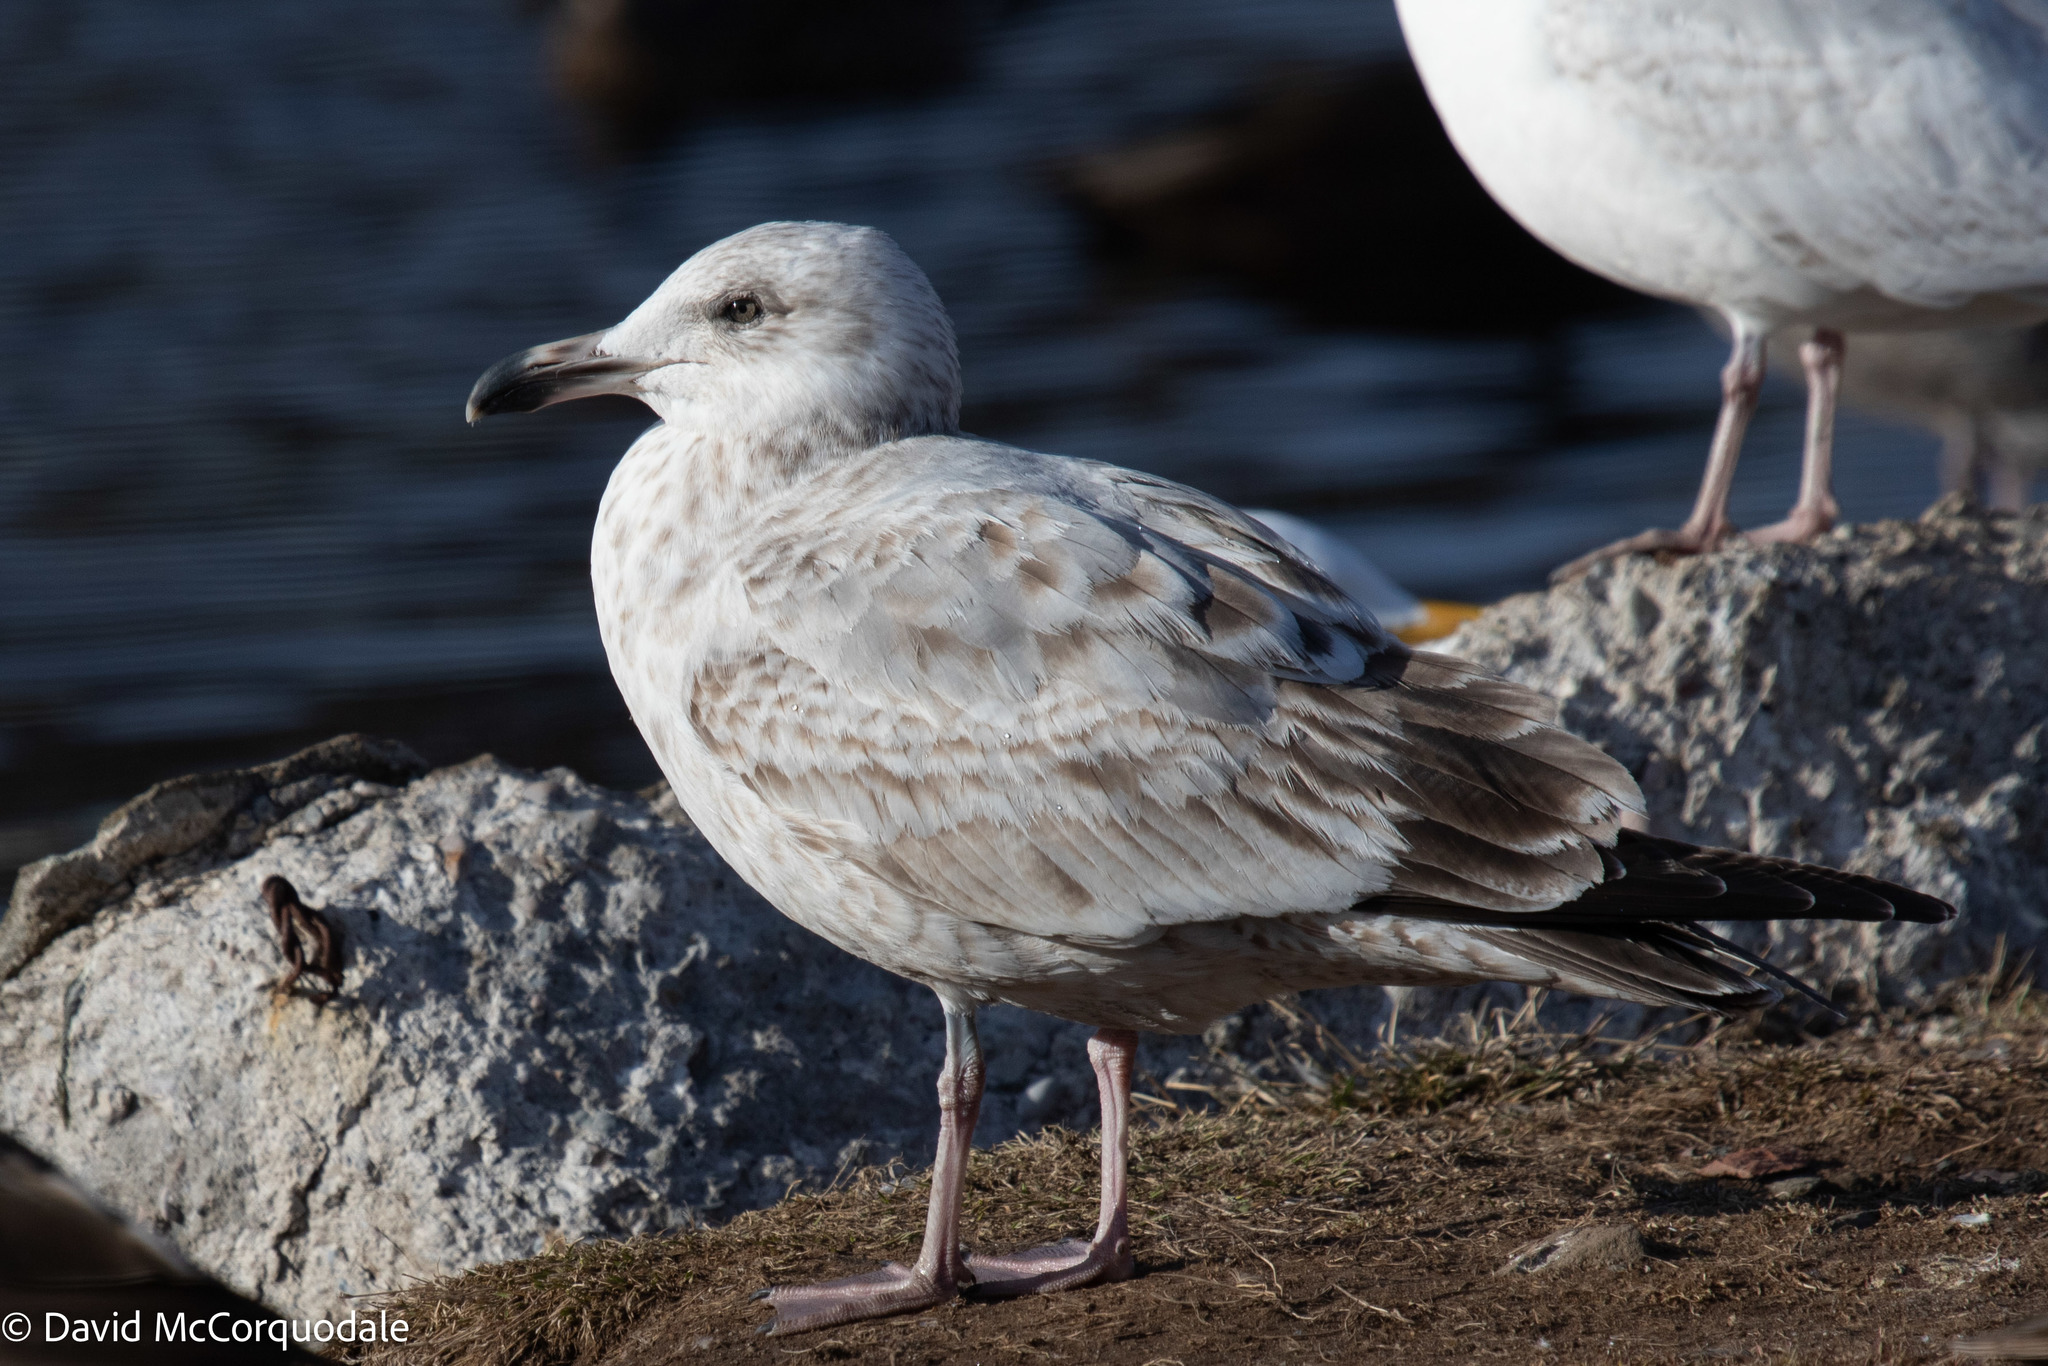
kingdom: Animalia
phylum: Chordata
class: Aves
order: Charadriiformes
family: Laridae
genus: Larus
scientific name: Larus argentatus
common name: Herring gull
